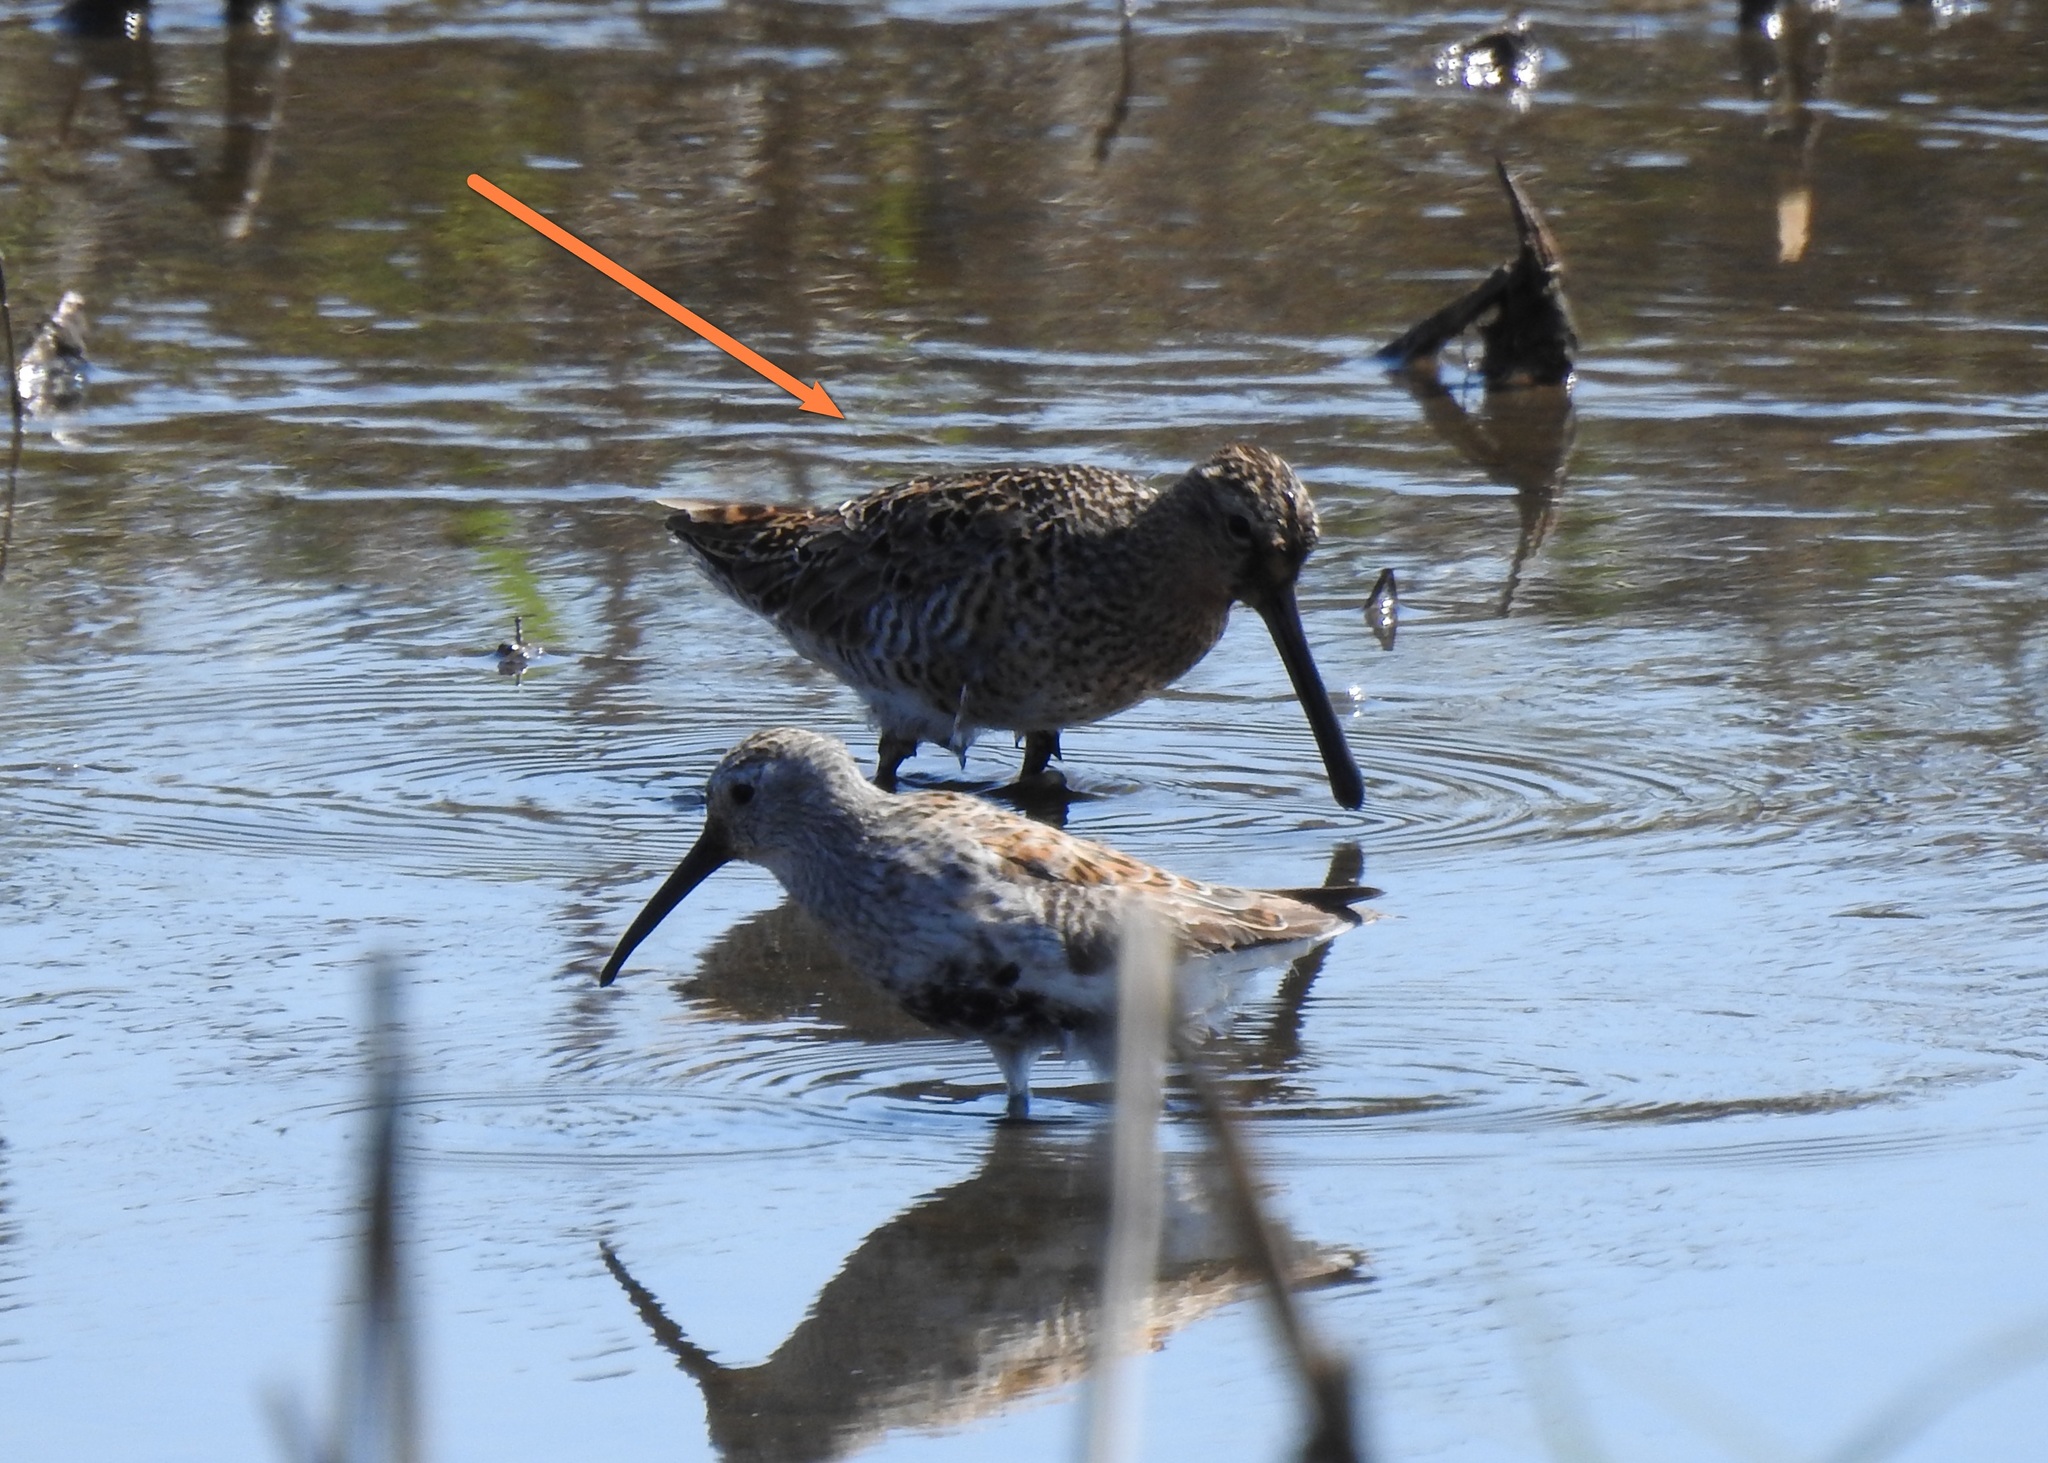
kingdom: Animalia
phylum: Chordata
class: Aves
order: Charadriiformes
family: Scolopacidae
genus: Limnodromus
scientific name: Limnodromus scolopaceus
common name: Long-billed dowitcher
